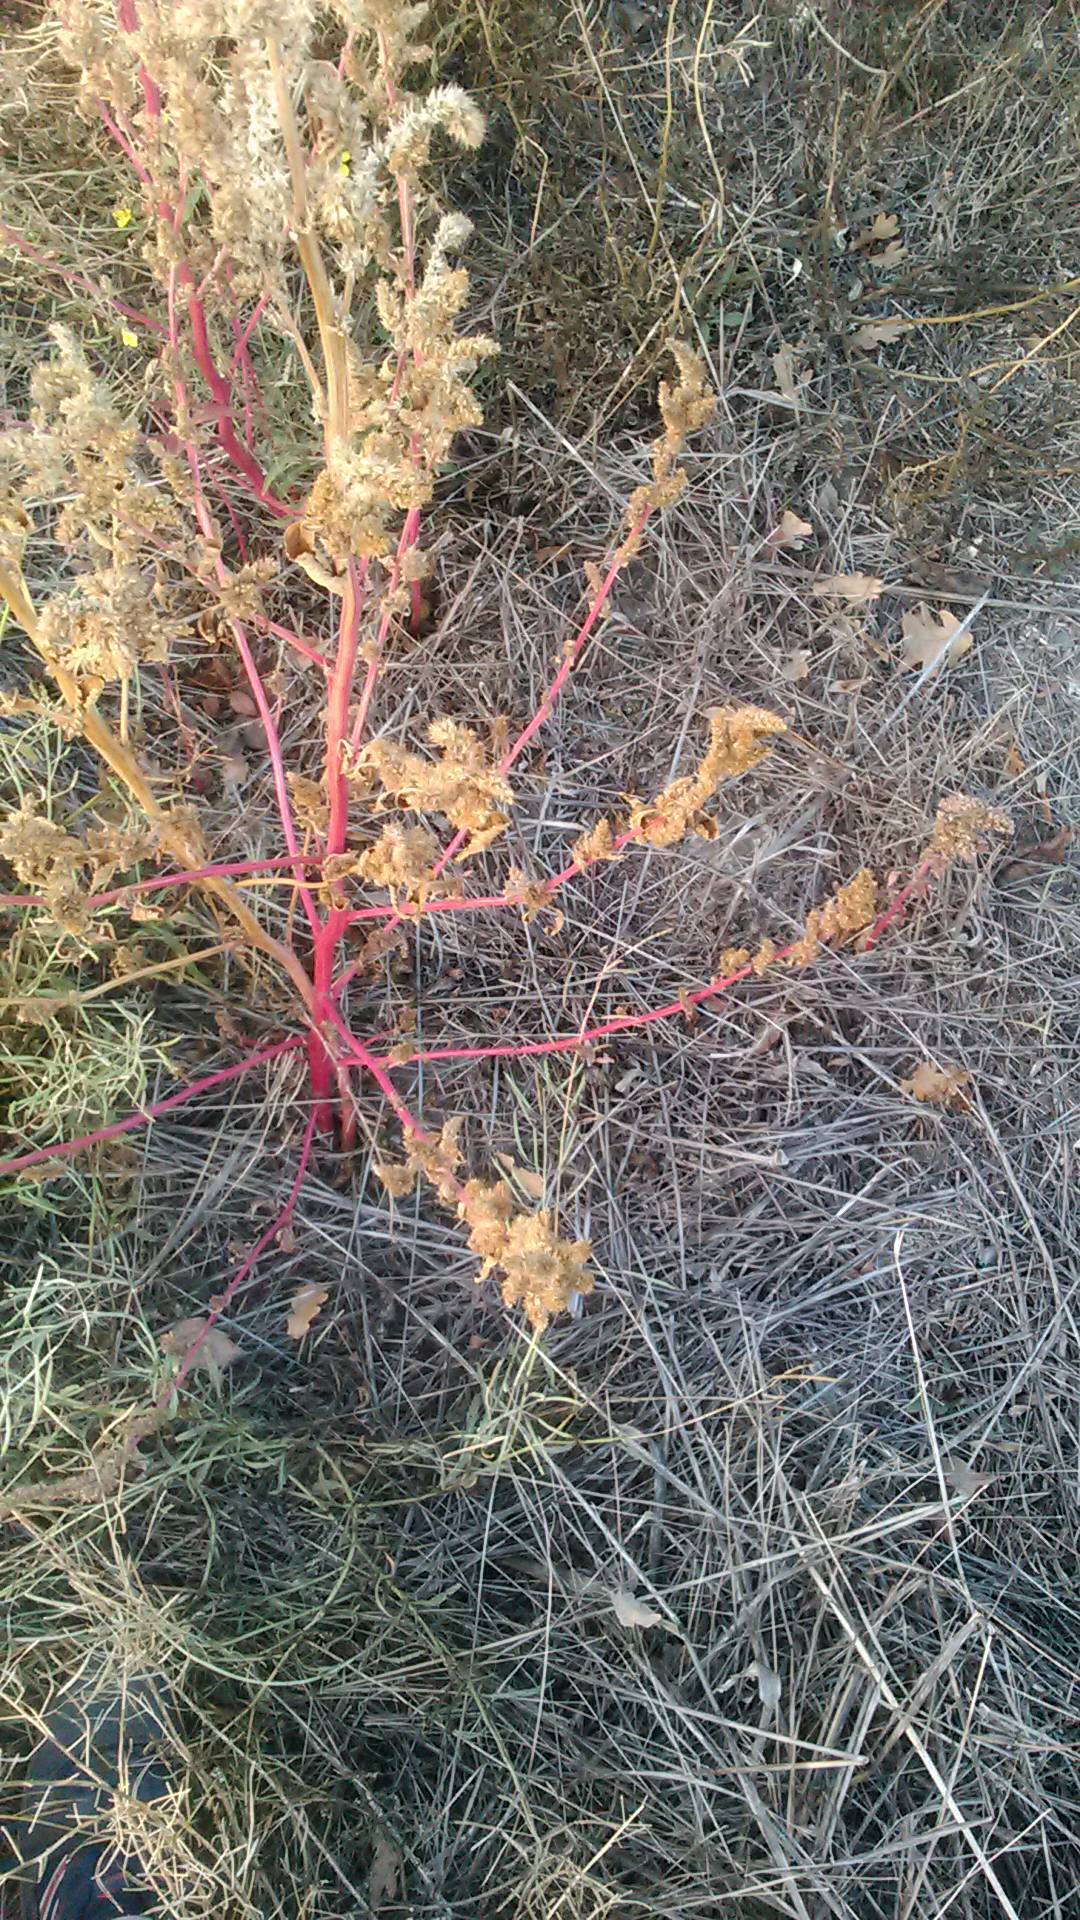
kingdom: Plantae
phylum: Tracheophyta
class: Magnoliopsida
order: Caryophyllales
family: Amaranthaceae
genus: Amaranthus
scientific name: Amaranthus retroflexus
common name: Redroot amaranth
